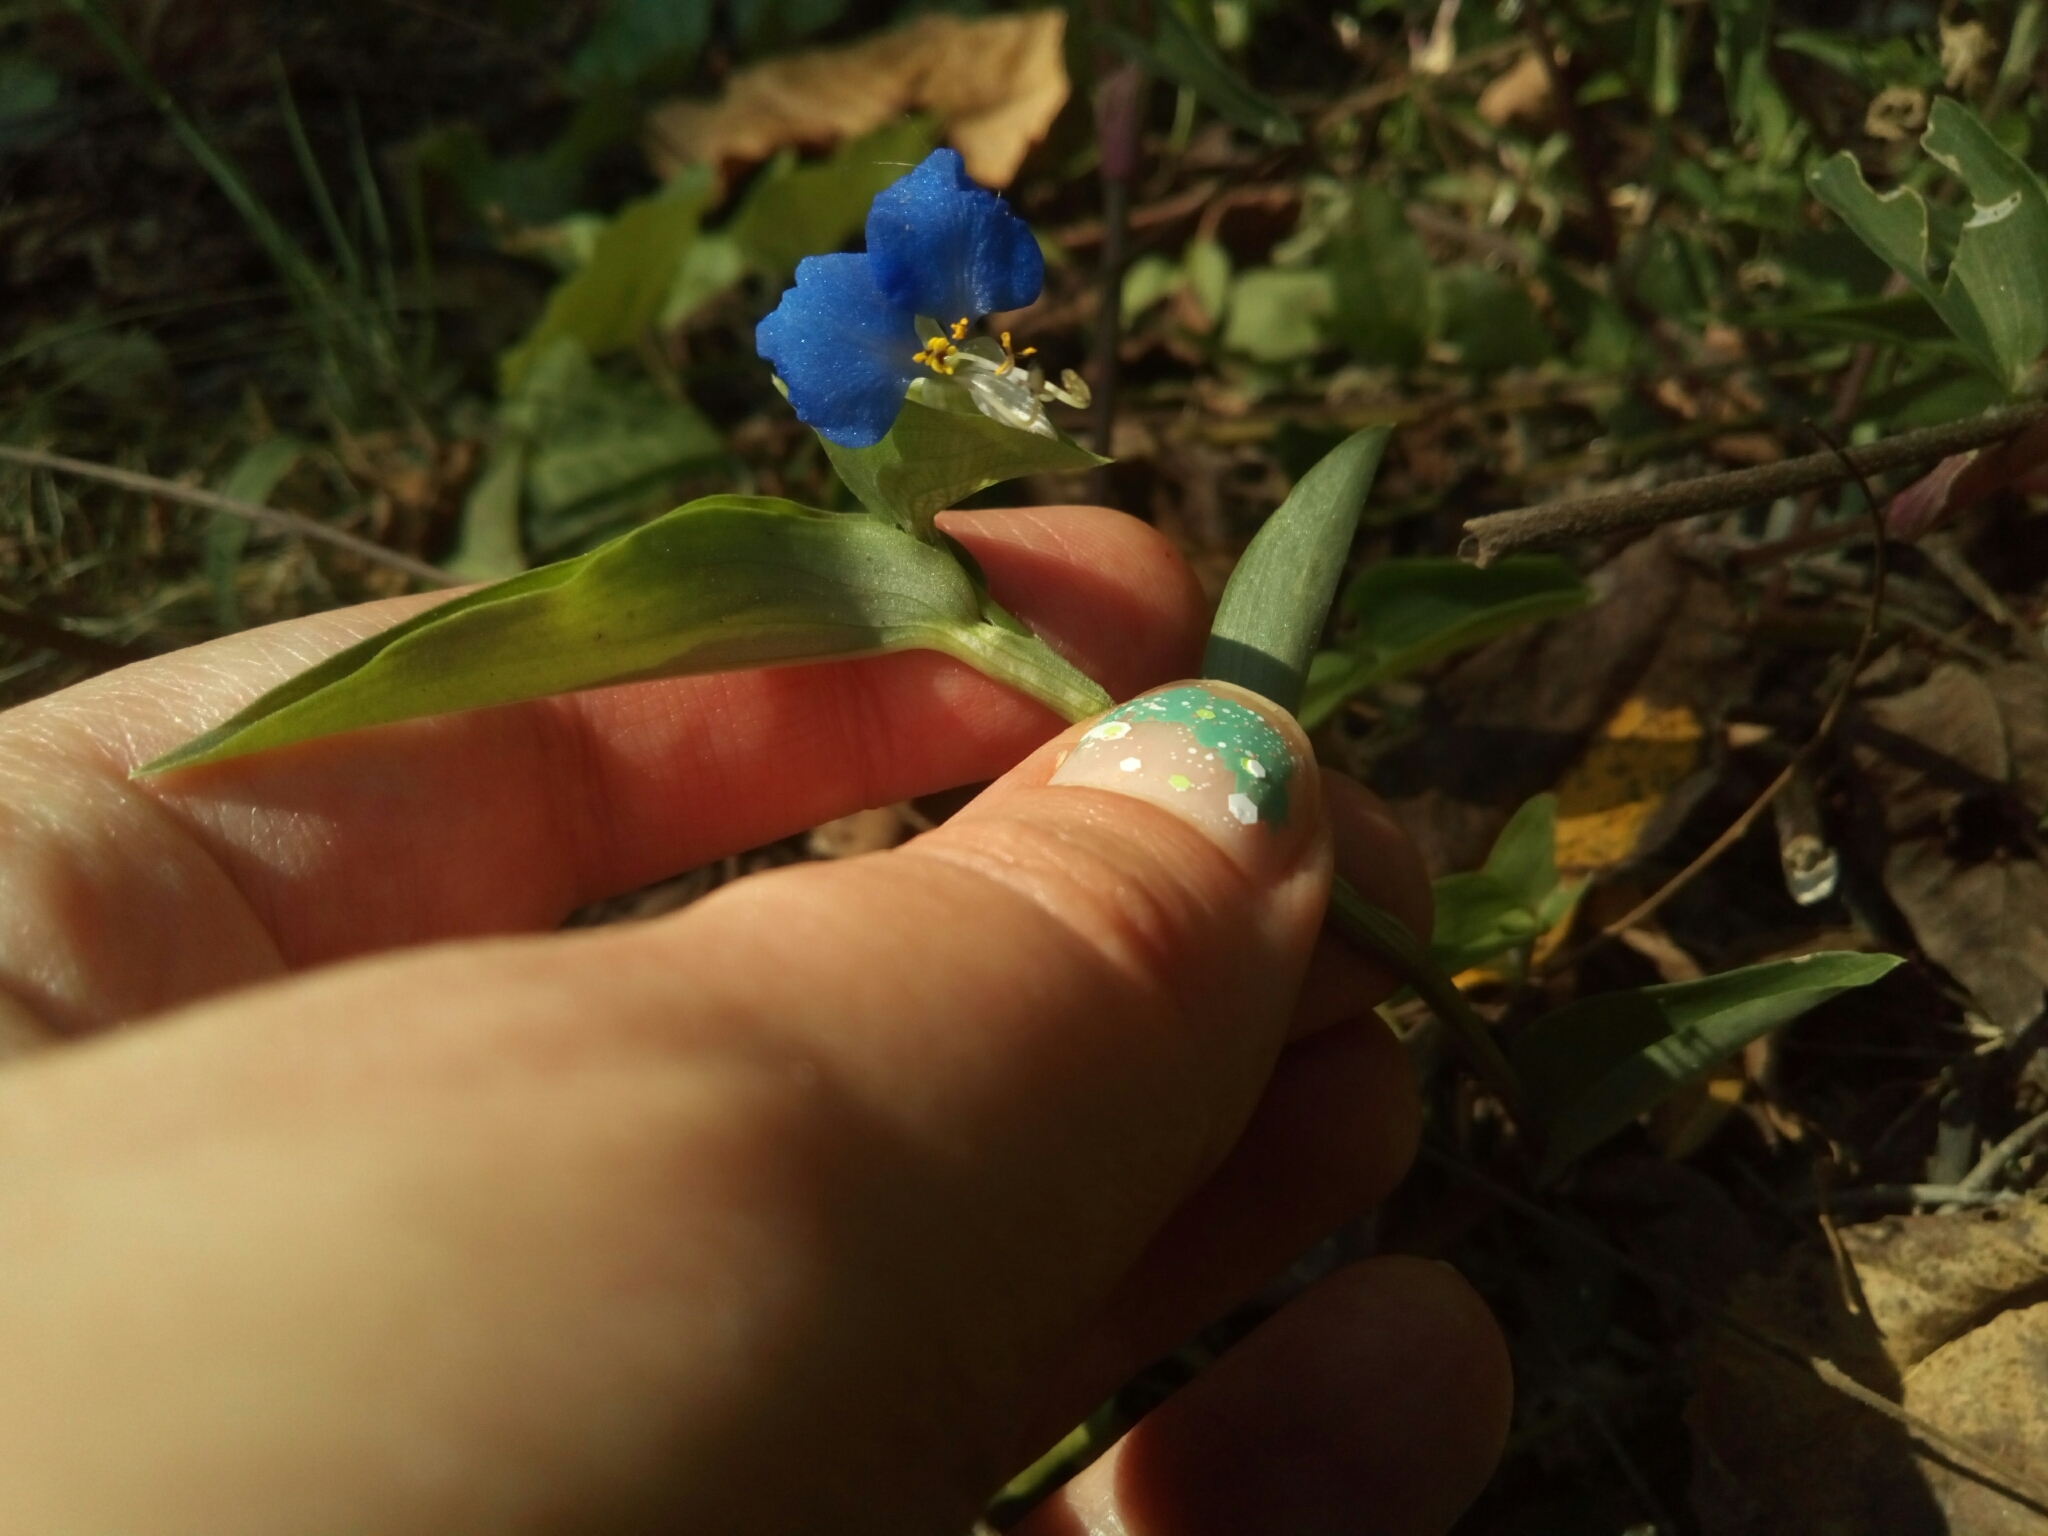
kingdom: Plantae
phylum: Tracheophyta
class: Liliopsida
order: Commelinales
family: Commelinaceae
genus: Commelina
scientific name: Commelina communis
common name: Asiatic dayflower
